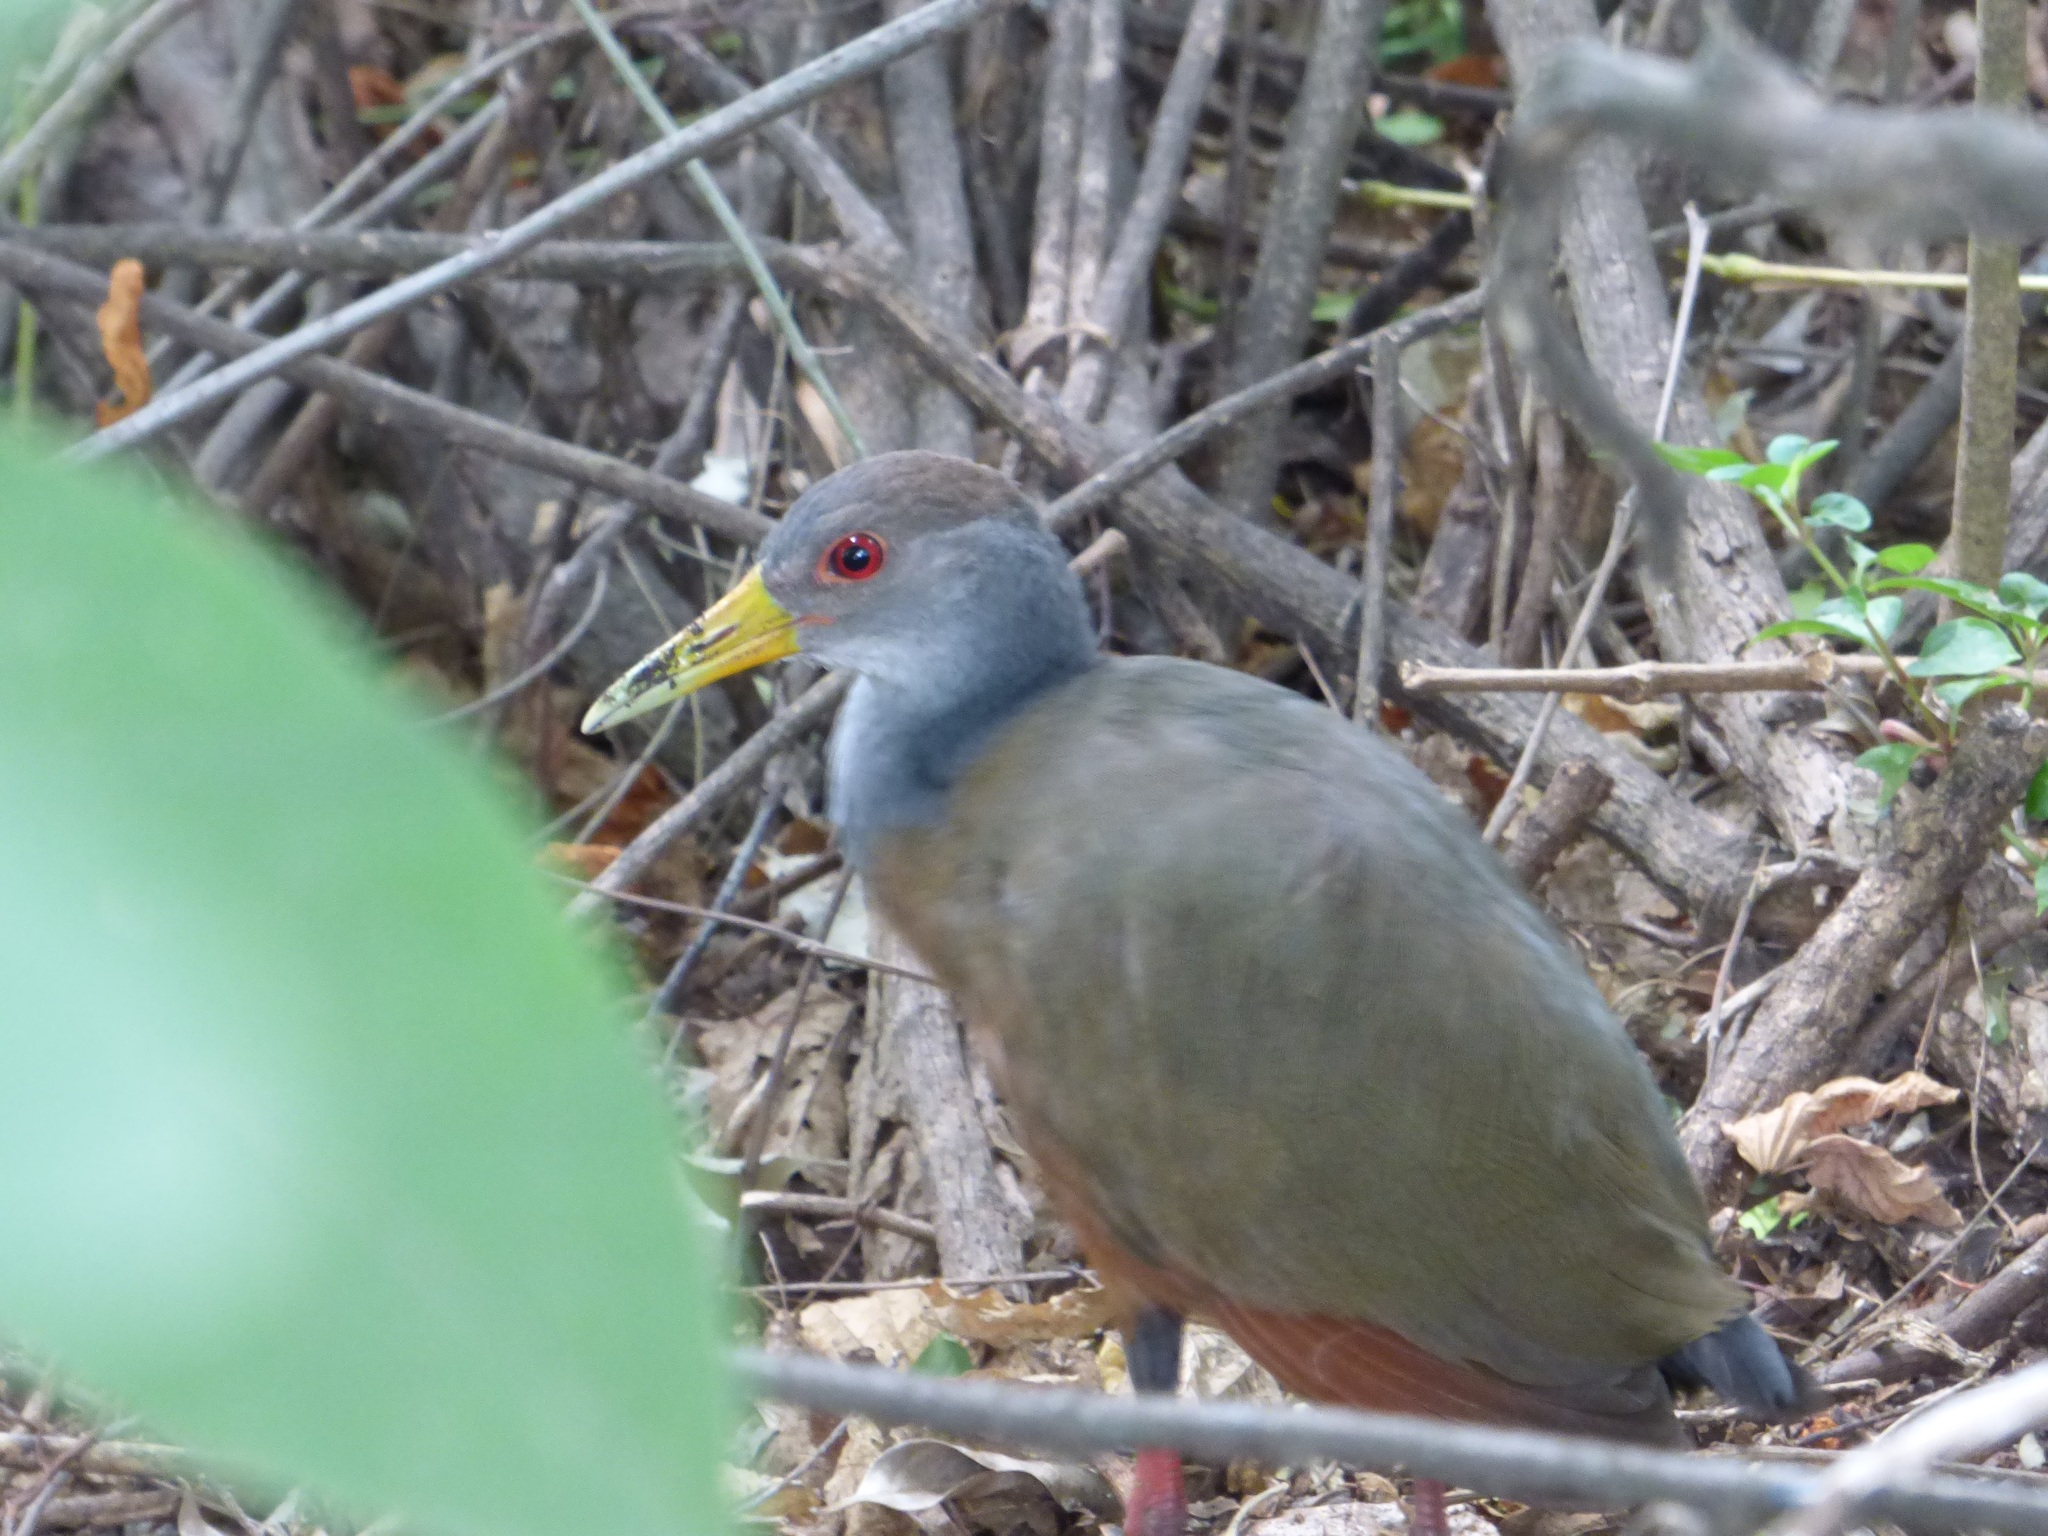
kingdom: Animalia
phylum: Chordata
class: Aves
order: Gruiformes
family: Rallidae
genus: Aramides
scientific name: Aramides cajanea
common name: Gray-necked wood-rail
